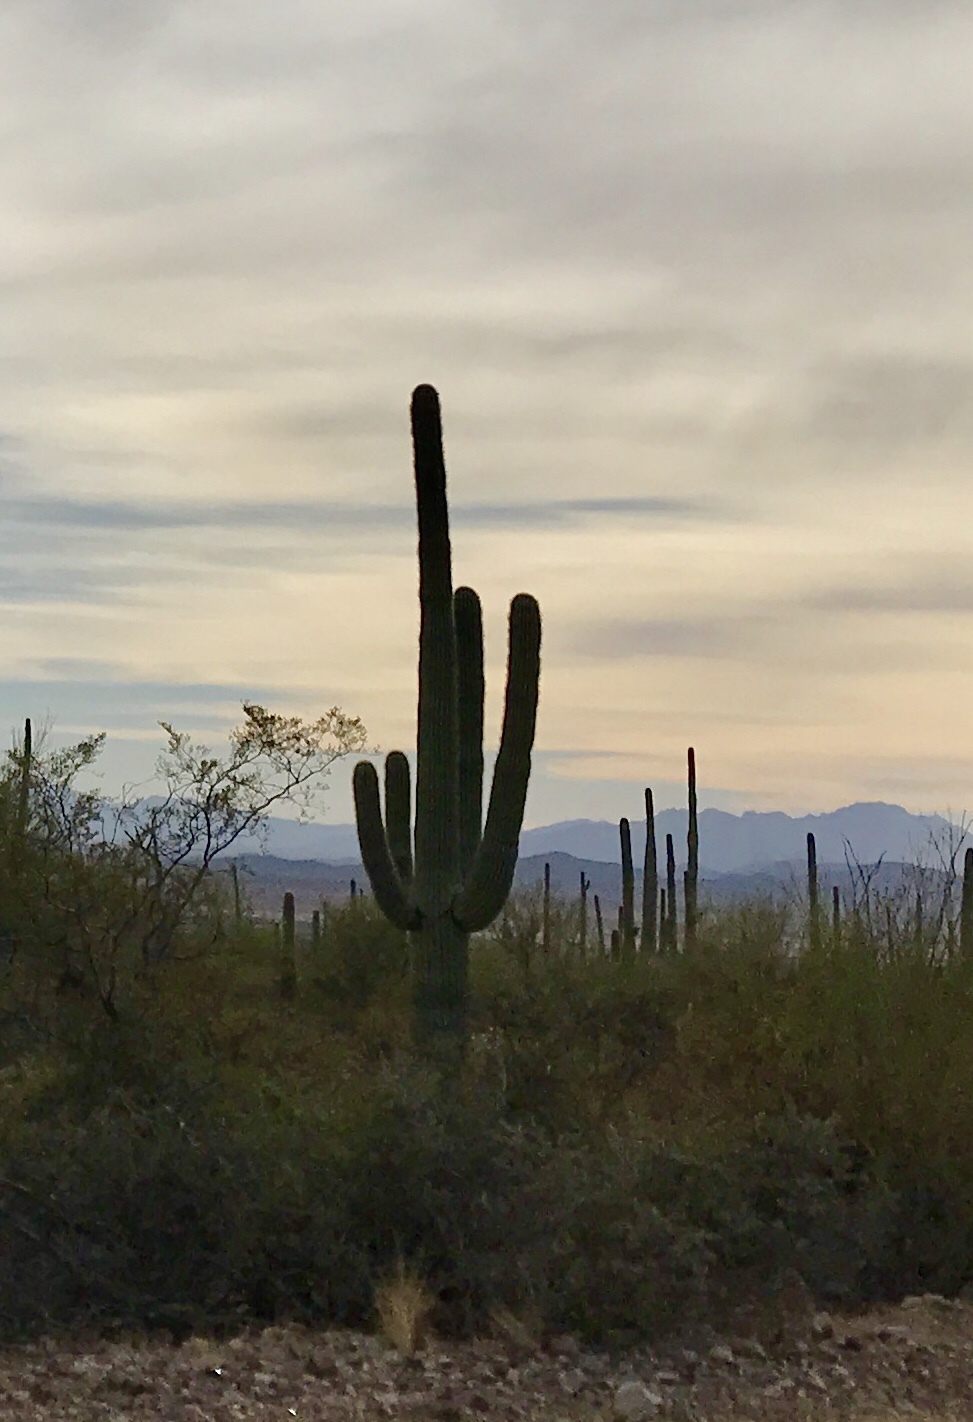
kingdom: Plantae
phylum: Tracheophyta
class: Magnoliopsida
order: Caryophyllales
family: Cactaceae
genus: Carnegiea
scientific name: Carnegiea gigantea
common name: Saguaro
